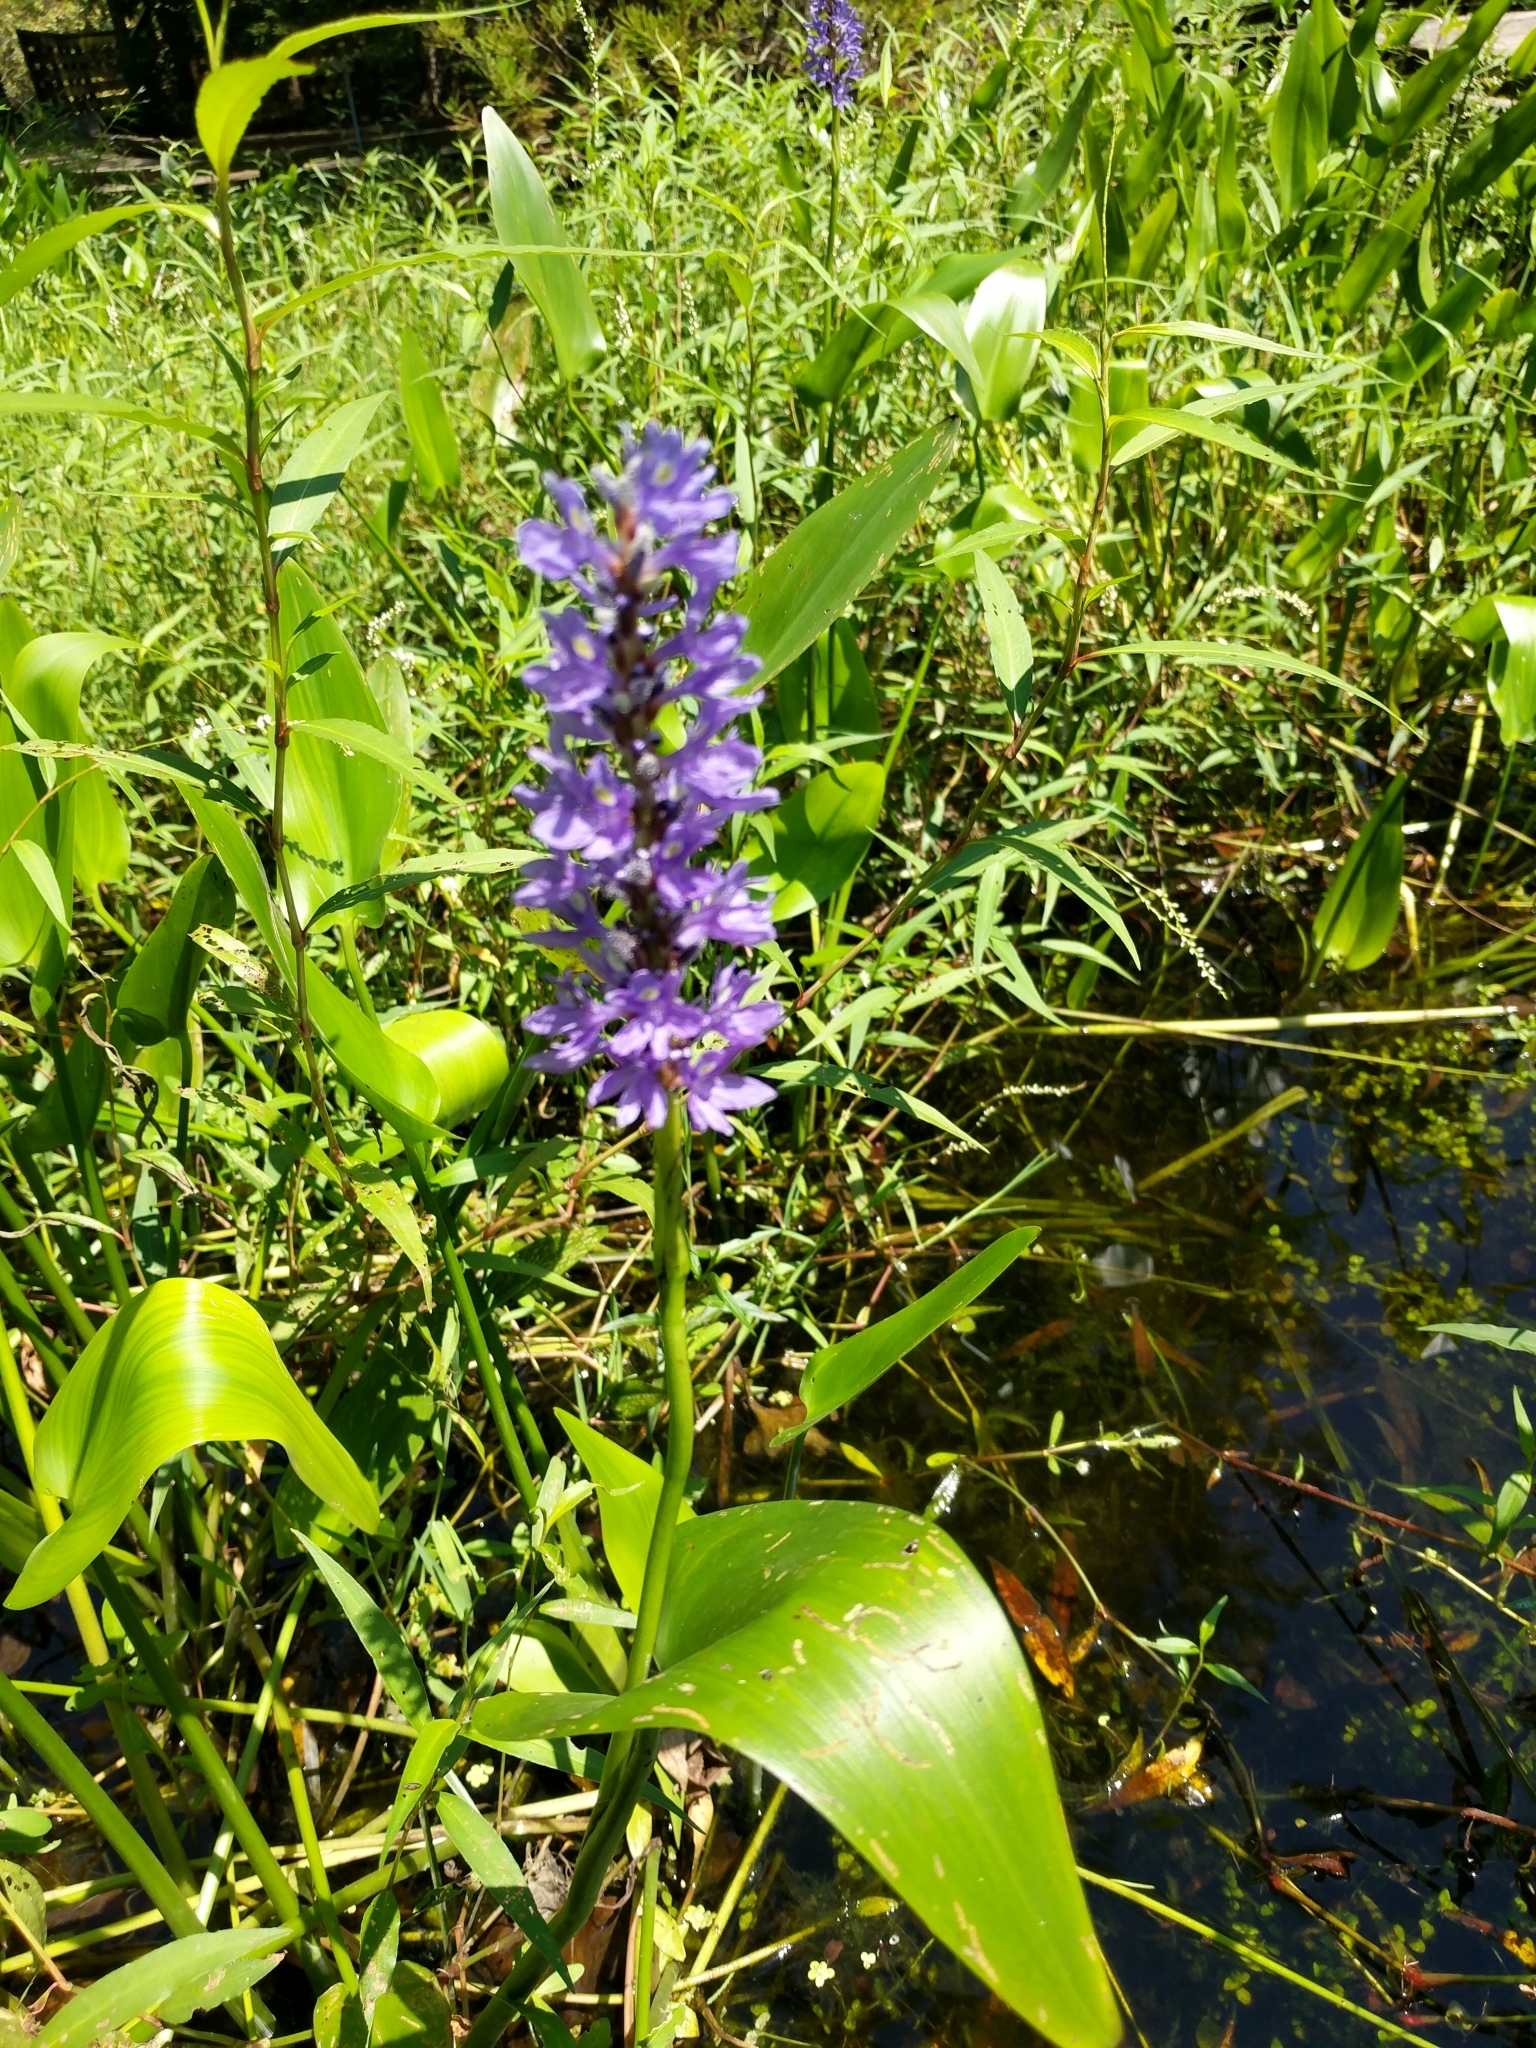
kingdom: Plantae
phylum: Tracheophyta
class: Liliopsida
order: Commelinales
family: Pontederiaceae
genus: Pontederia
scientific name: Pontederia cordata
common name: Pickerelweed
